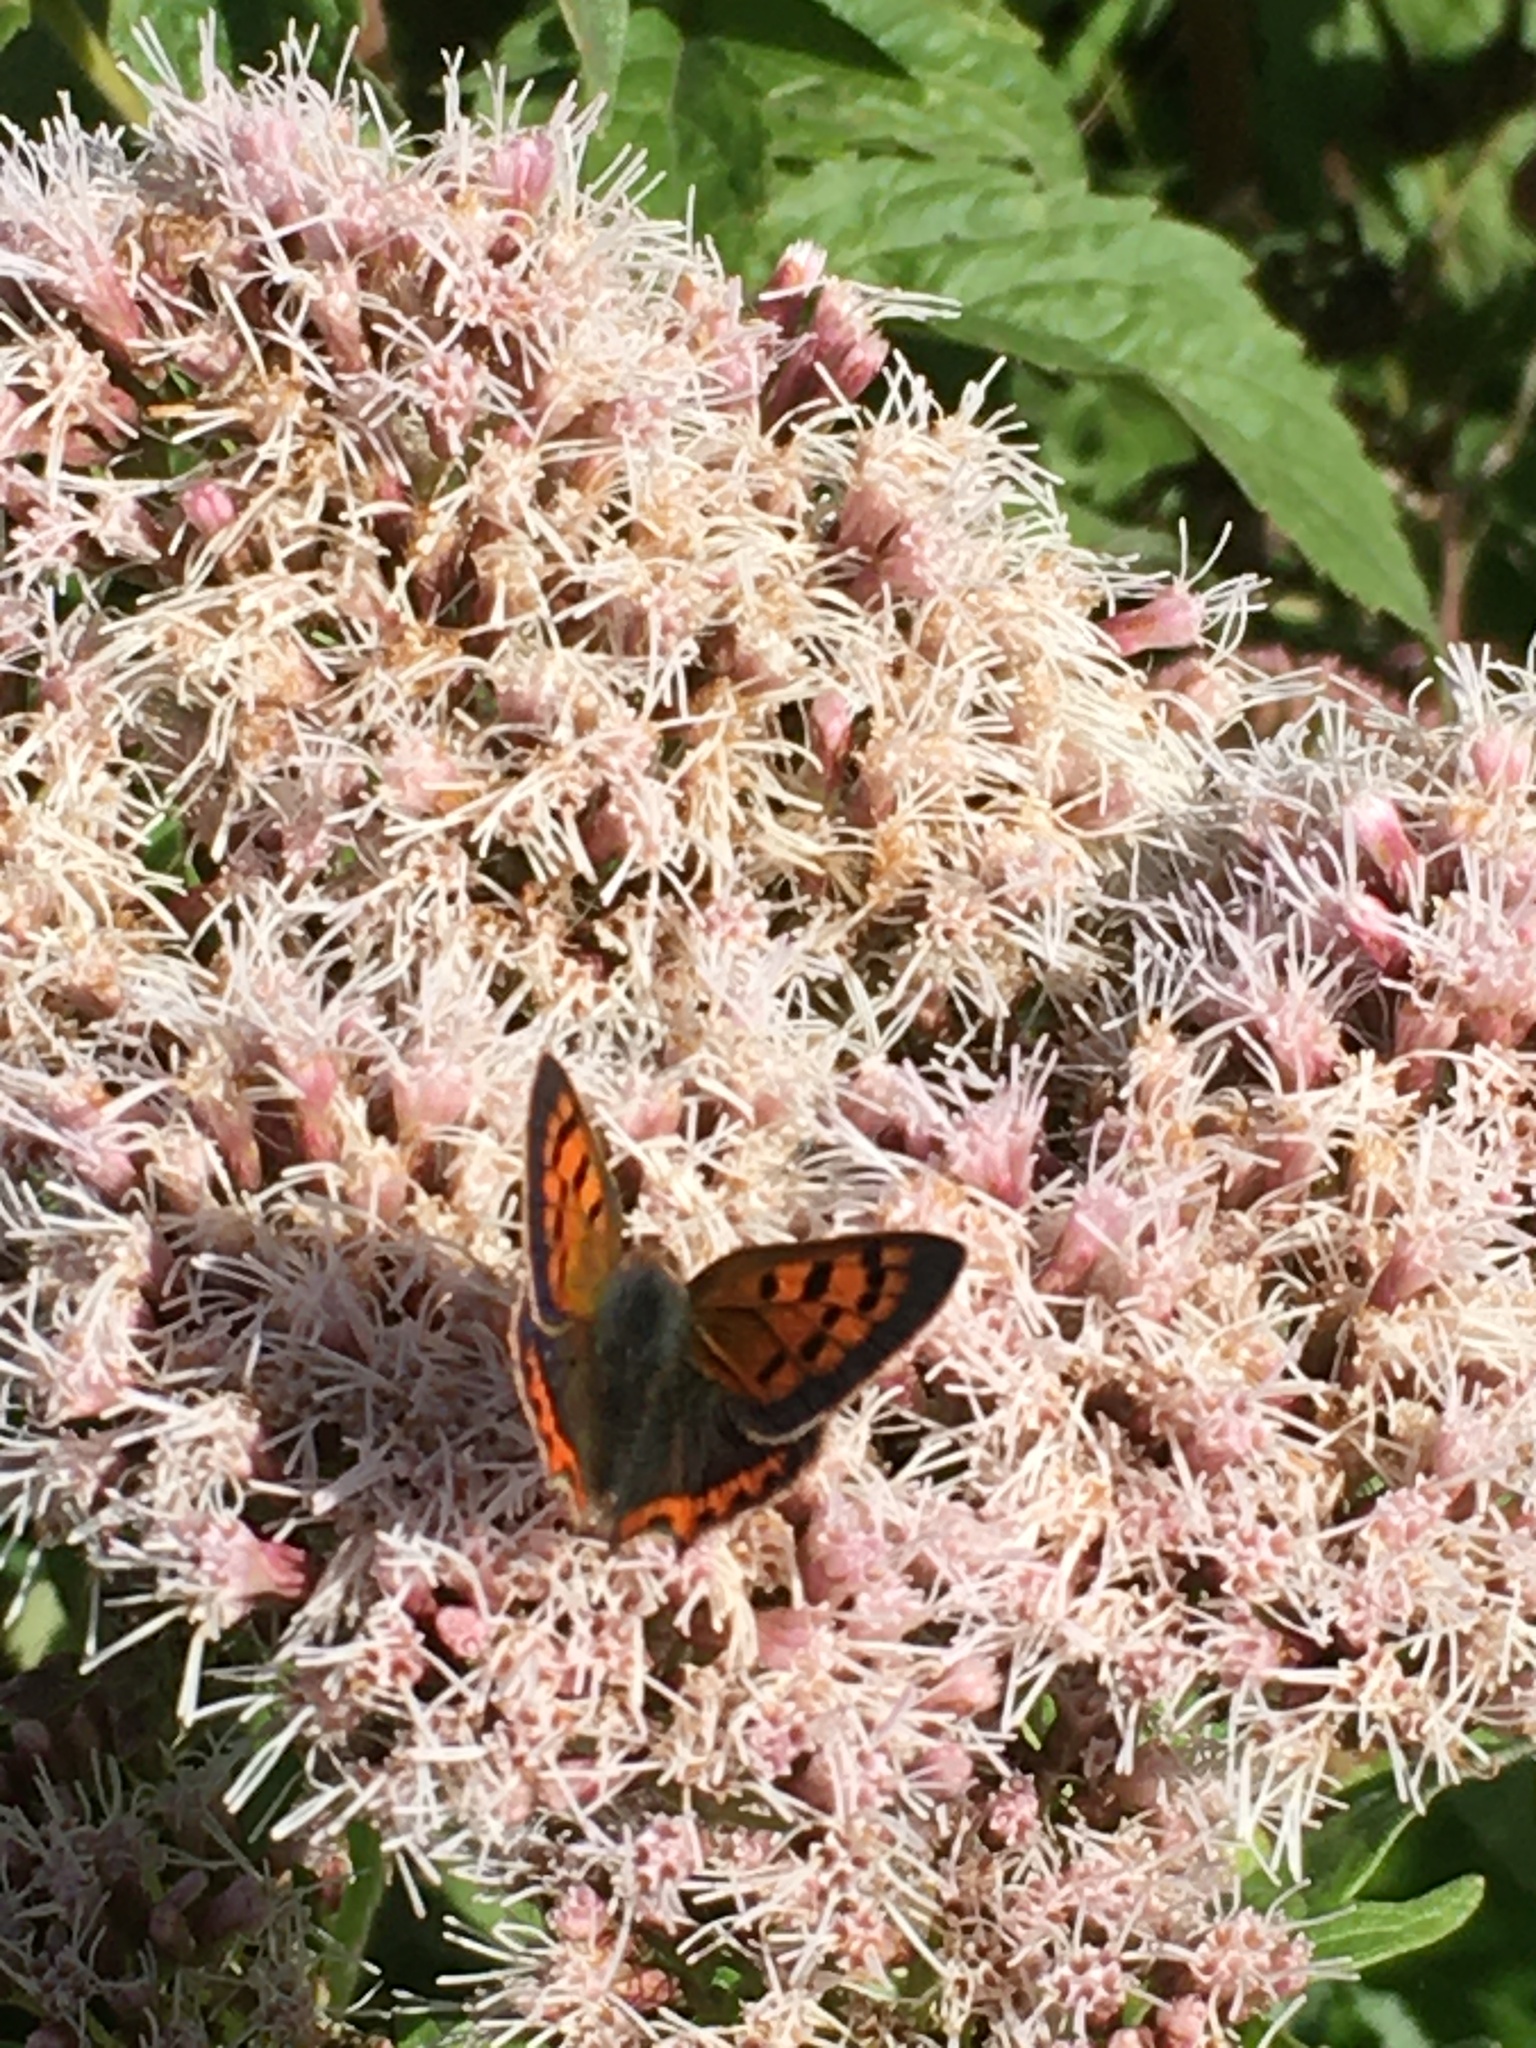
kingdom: Animalia
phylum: Arthropoda
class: Insecta
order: Lepidoptera
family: Lycaenidae
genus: Lycaena
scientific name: Lycaena phlaeas
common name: Small copper
